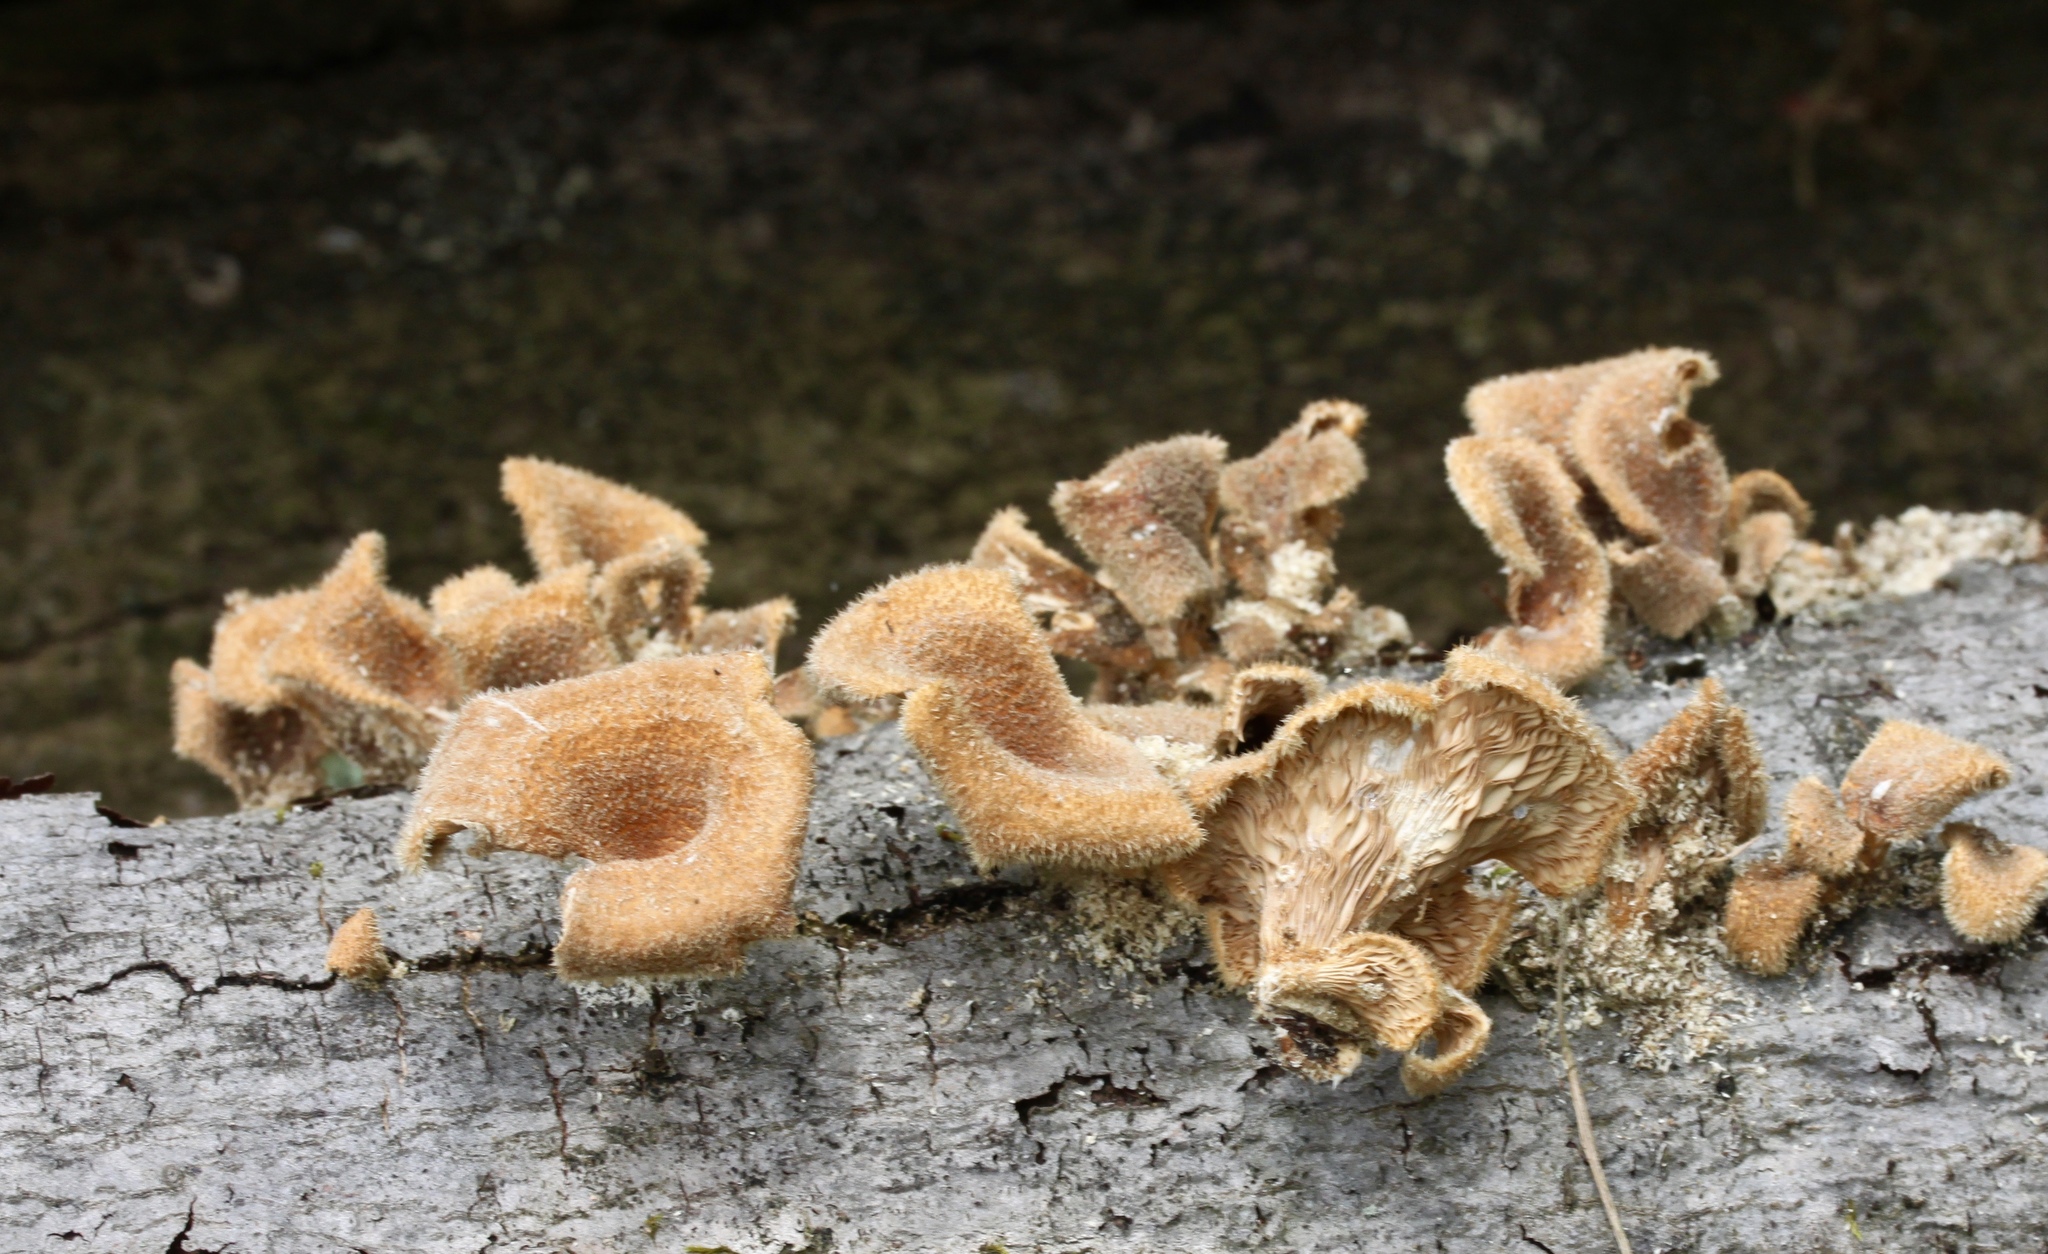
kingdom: Fungi
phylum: Basidiomycota
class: Agaricomycetes
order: Polyporales
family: Panaceae
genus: Panus
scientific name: Panus neostrigosus
